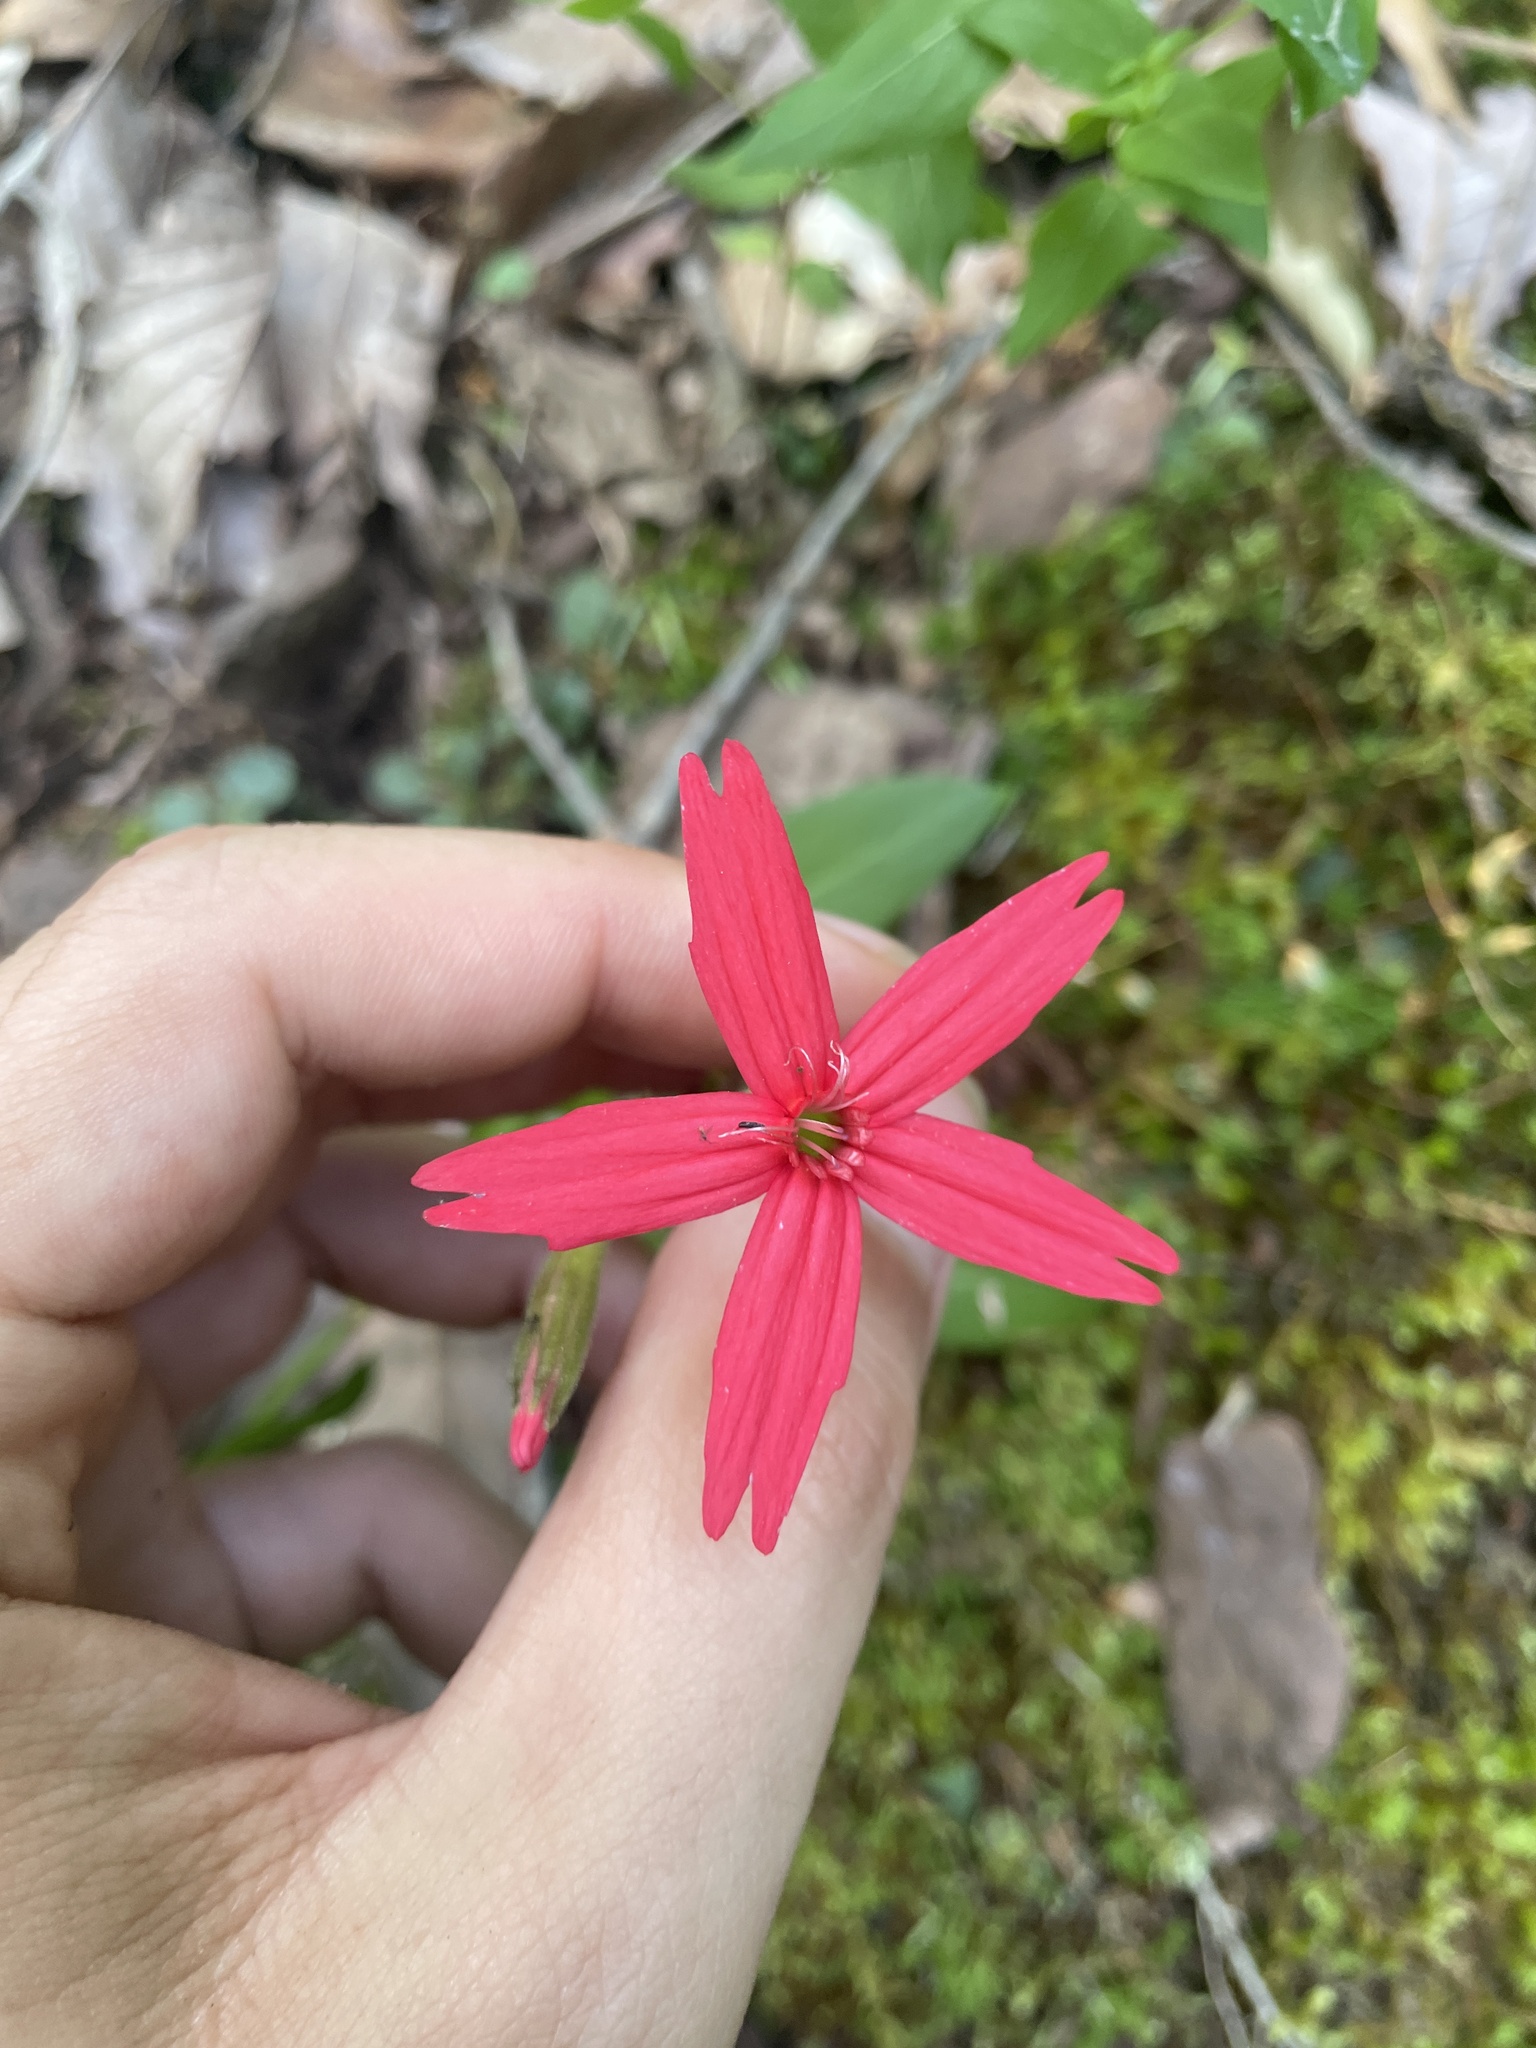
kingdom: Plantae
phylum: Tracheophyta
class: Magnoliopsida
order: Caryophyllales
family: Caryophyllaceae
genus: Silene
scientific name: Silene virginica
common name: Fire-pink
